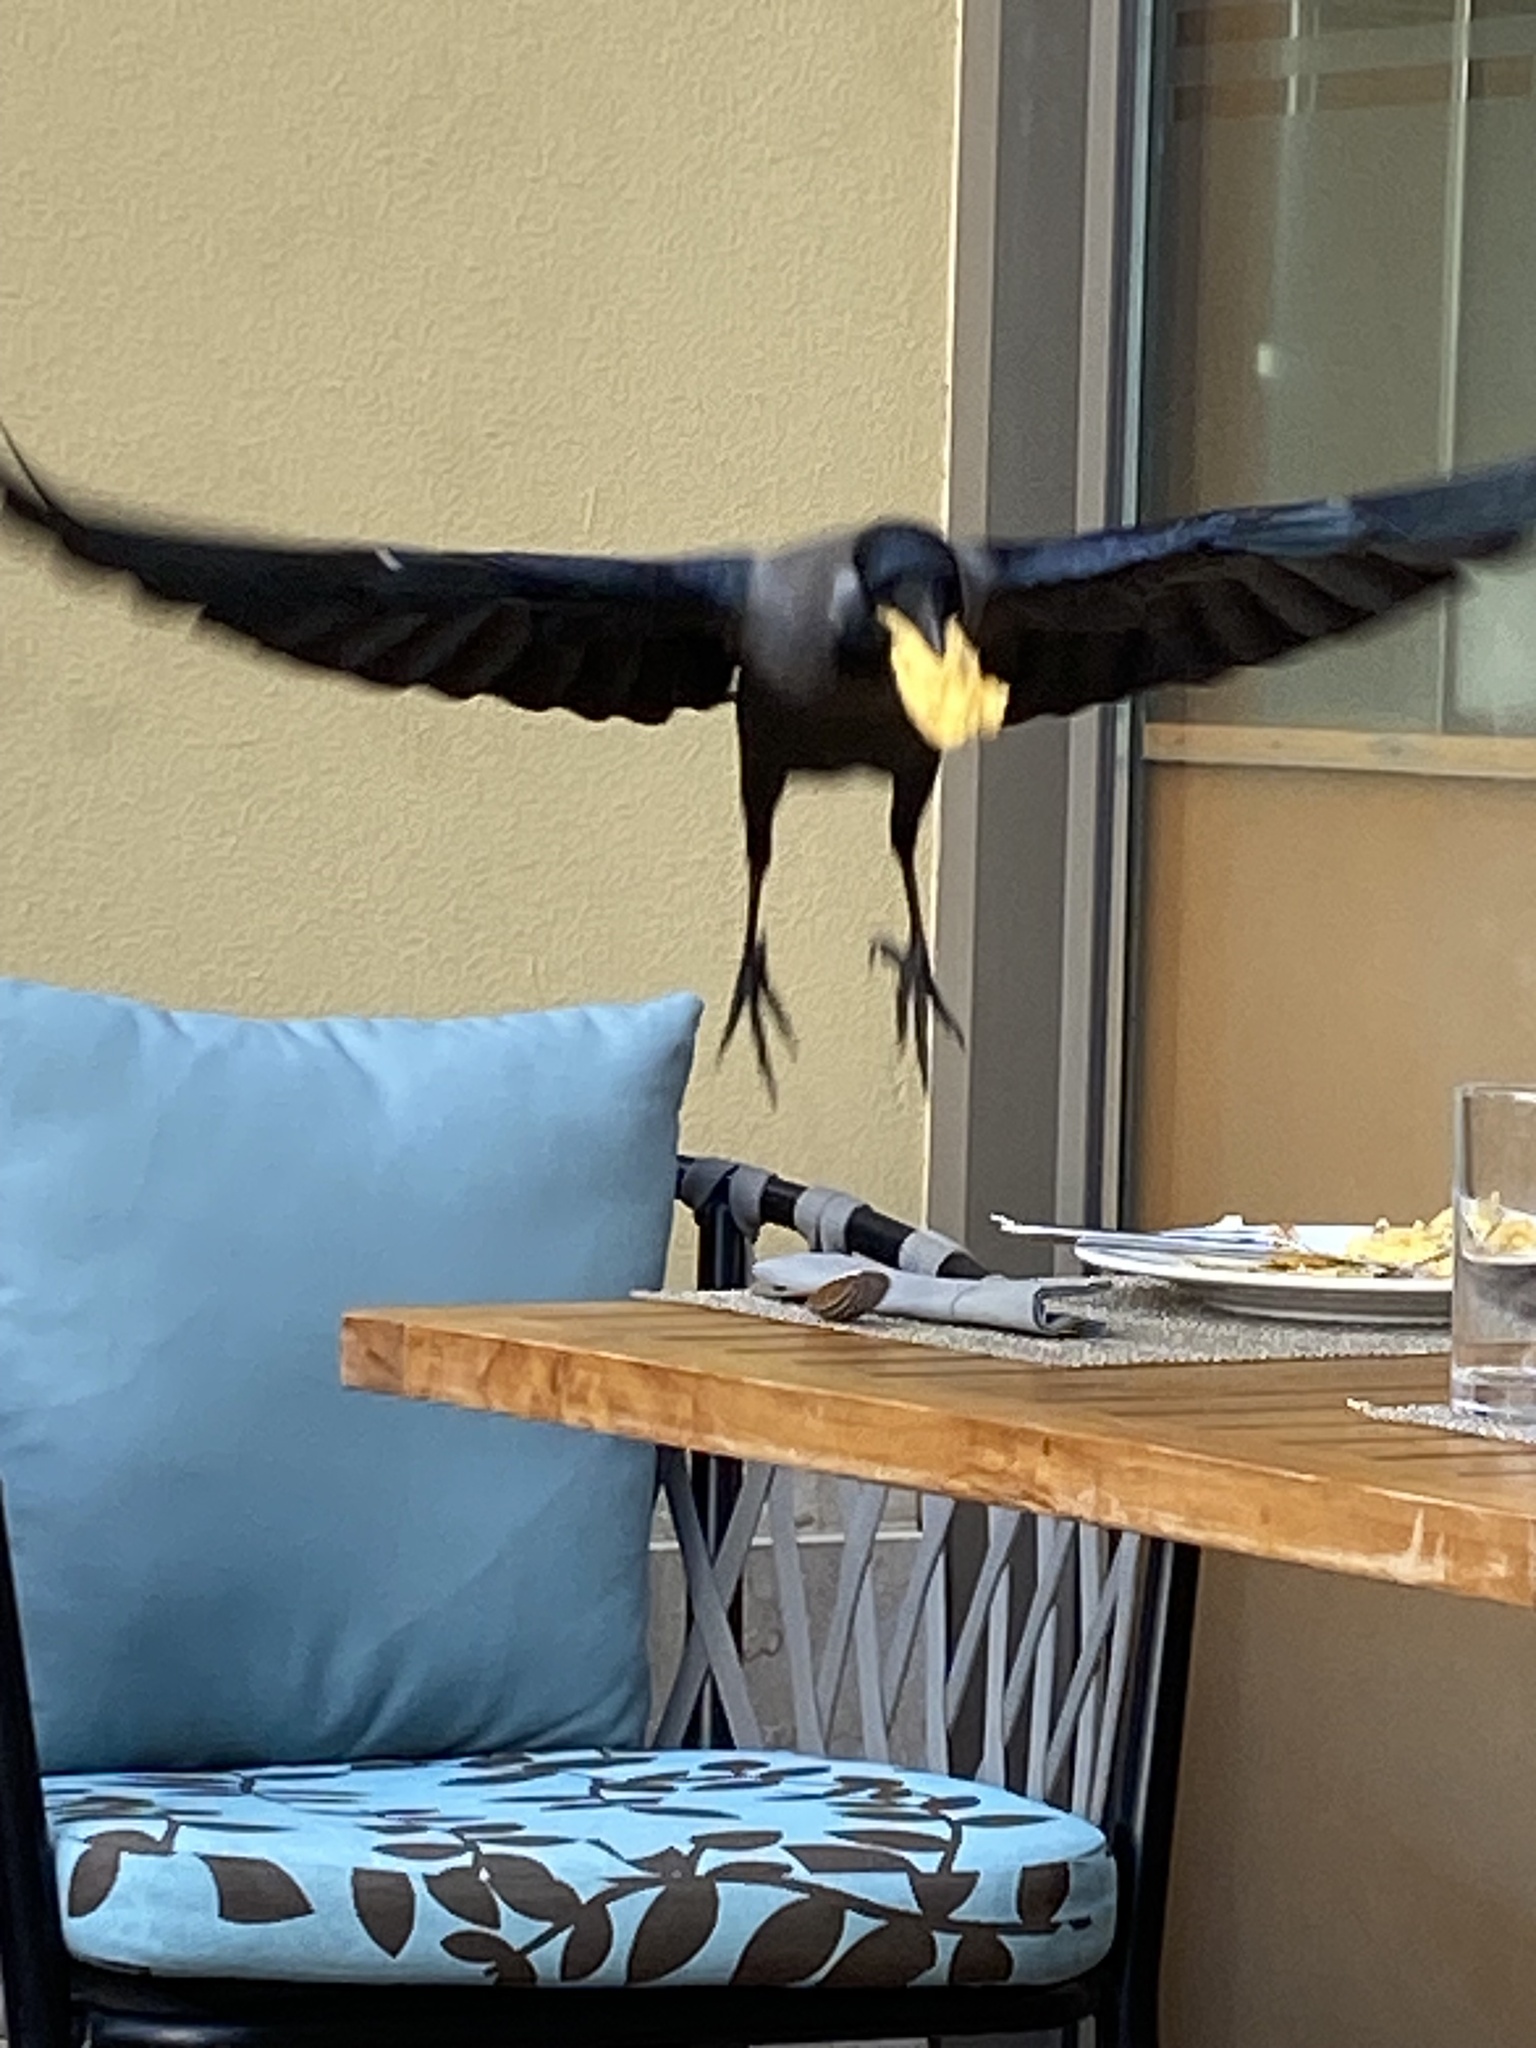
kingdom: Animalia
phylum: Chordata
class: Aves
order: Passeriformes
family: Corvidae
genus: Corvus
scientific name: Corvus splendens
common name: House crow
